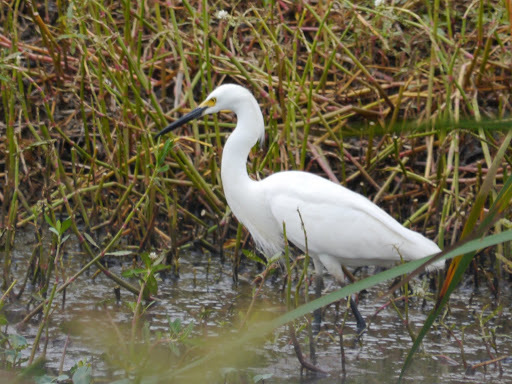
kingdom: Animalia
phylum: Chordata
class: Aves
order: Pelecaniformes
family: Ardeidae
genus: Egretta
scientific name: Egretta thula
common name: Snowy egret
